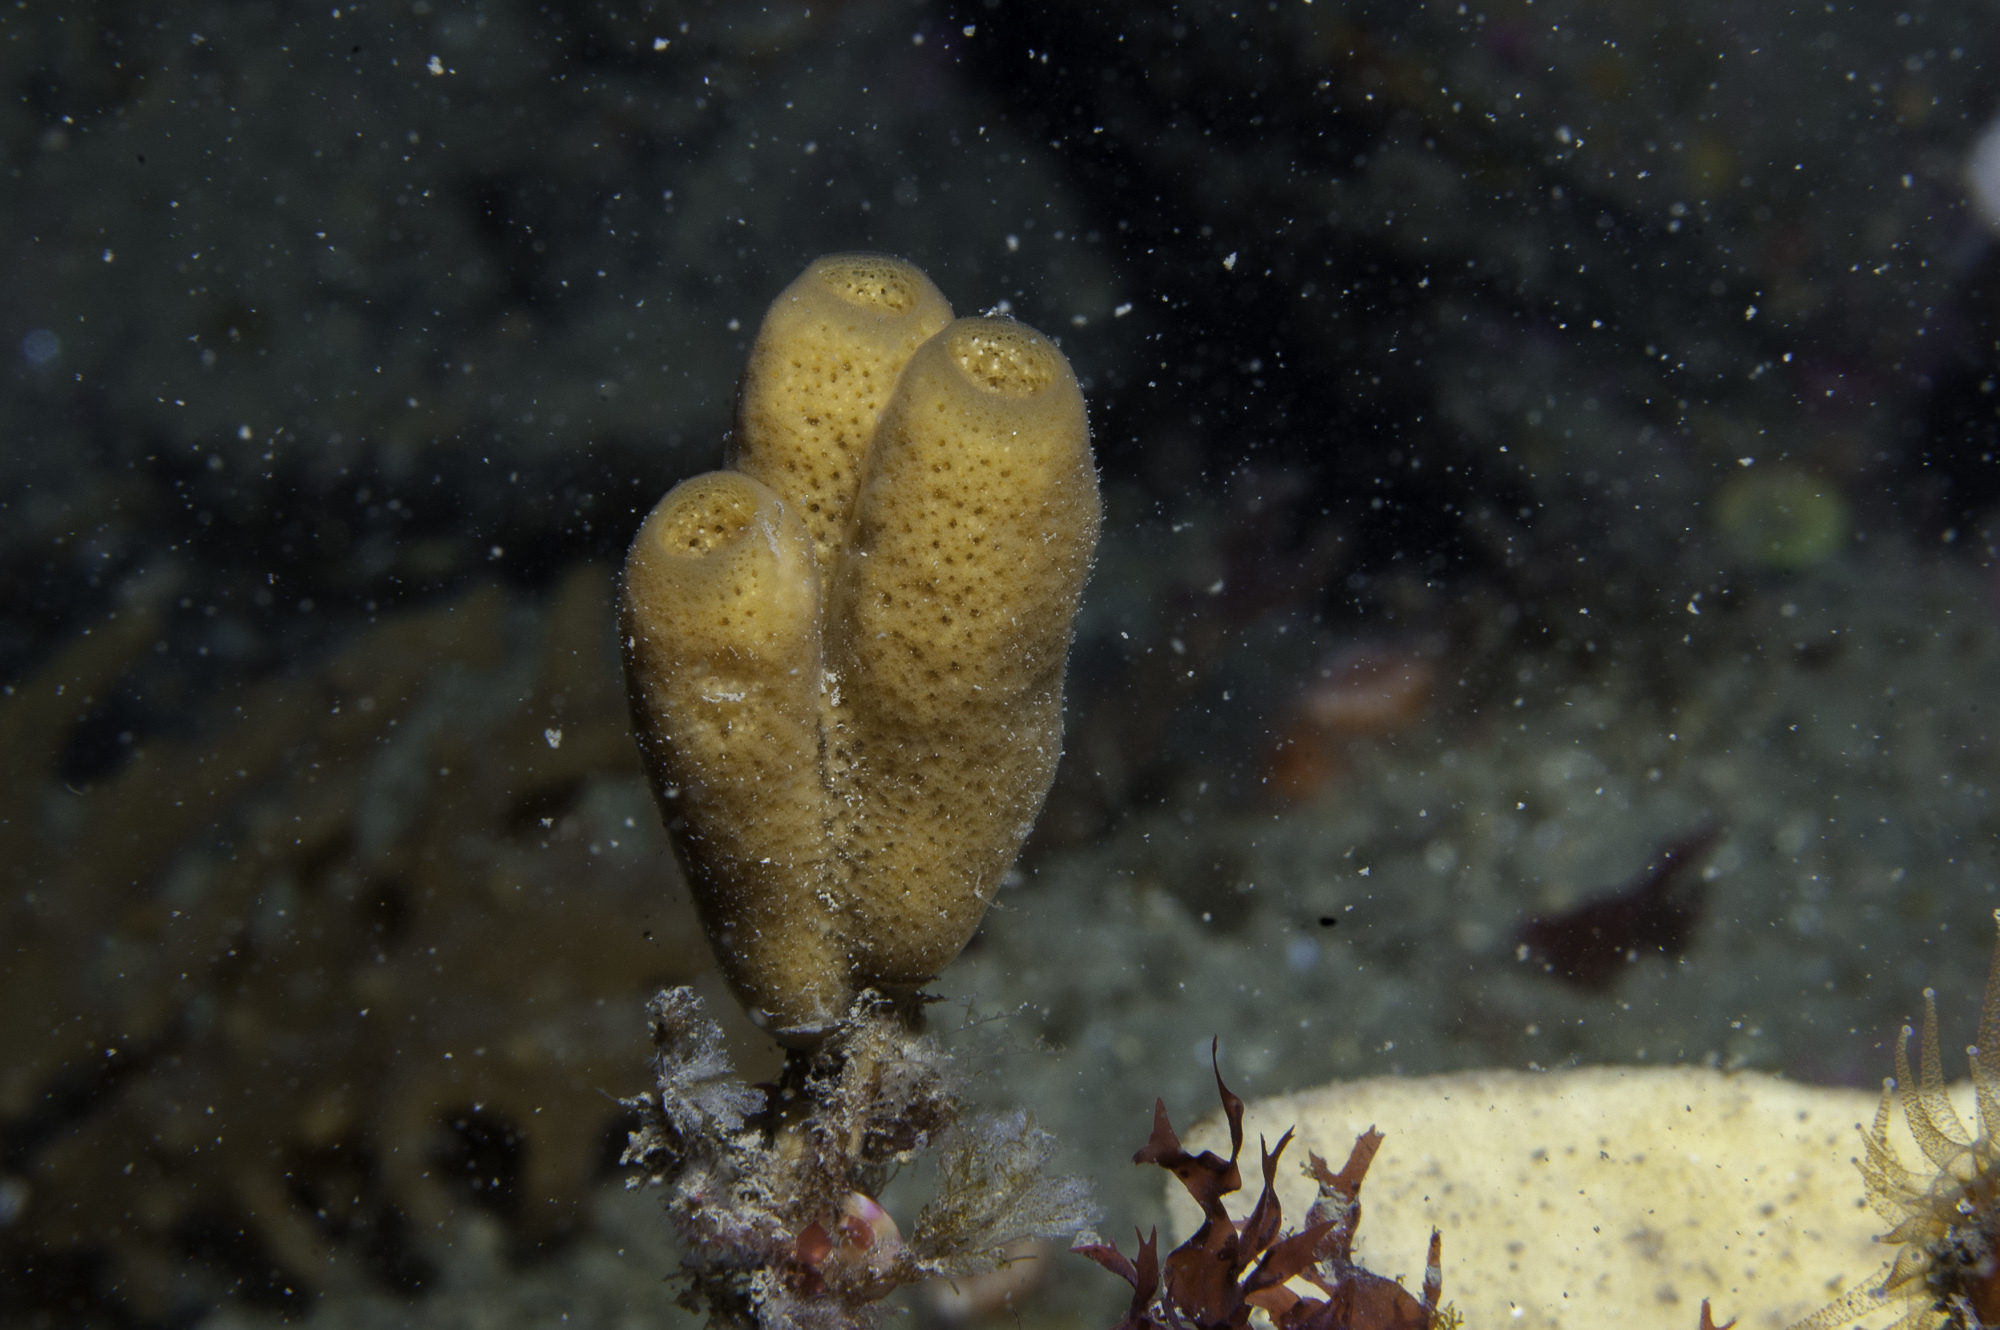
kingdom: Animalia
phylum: Porifera
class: Demospongiae
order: Haplosclerida
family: Chalinidae
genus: Haliclona
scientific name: Haliclona urceolus
